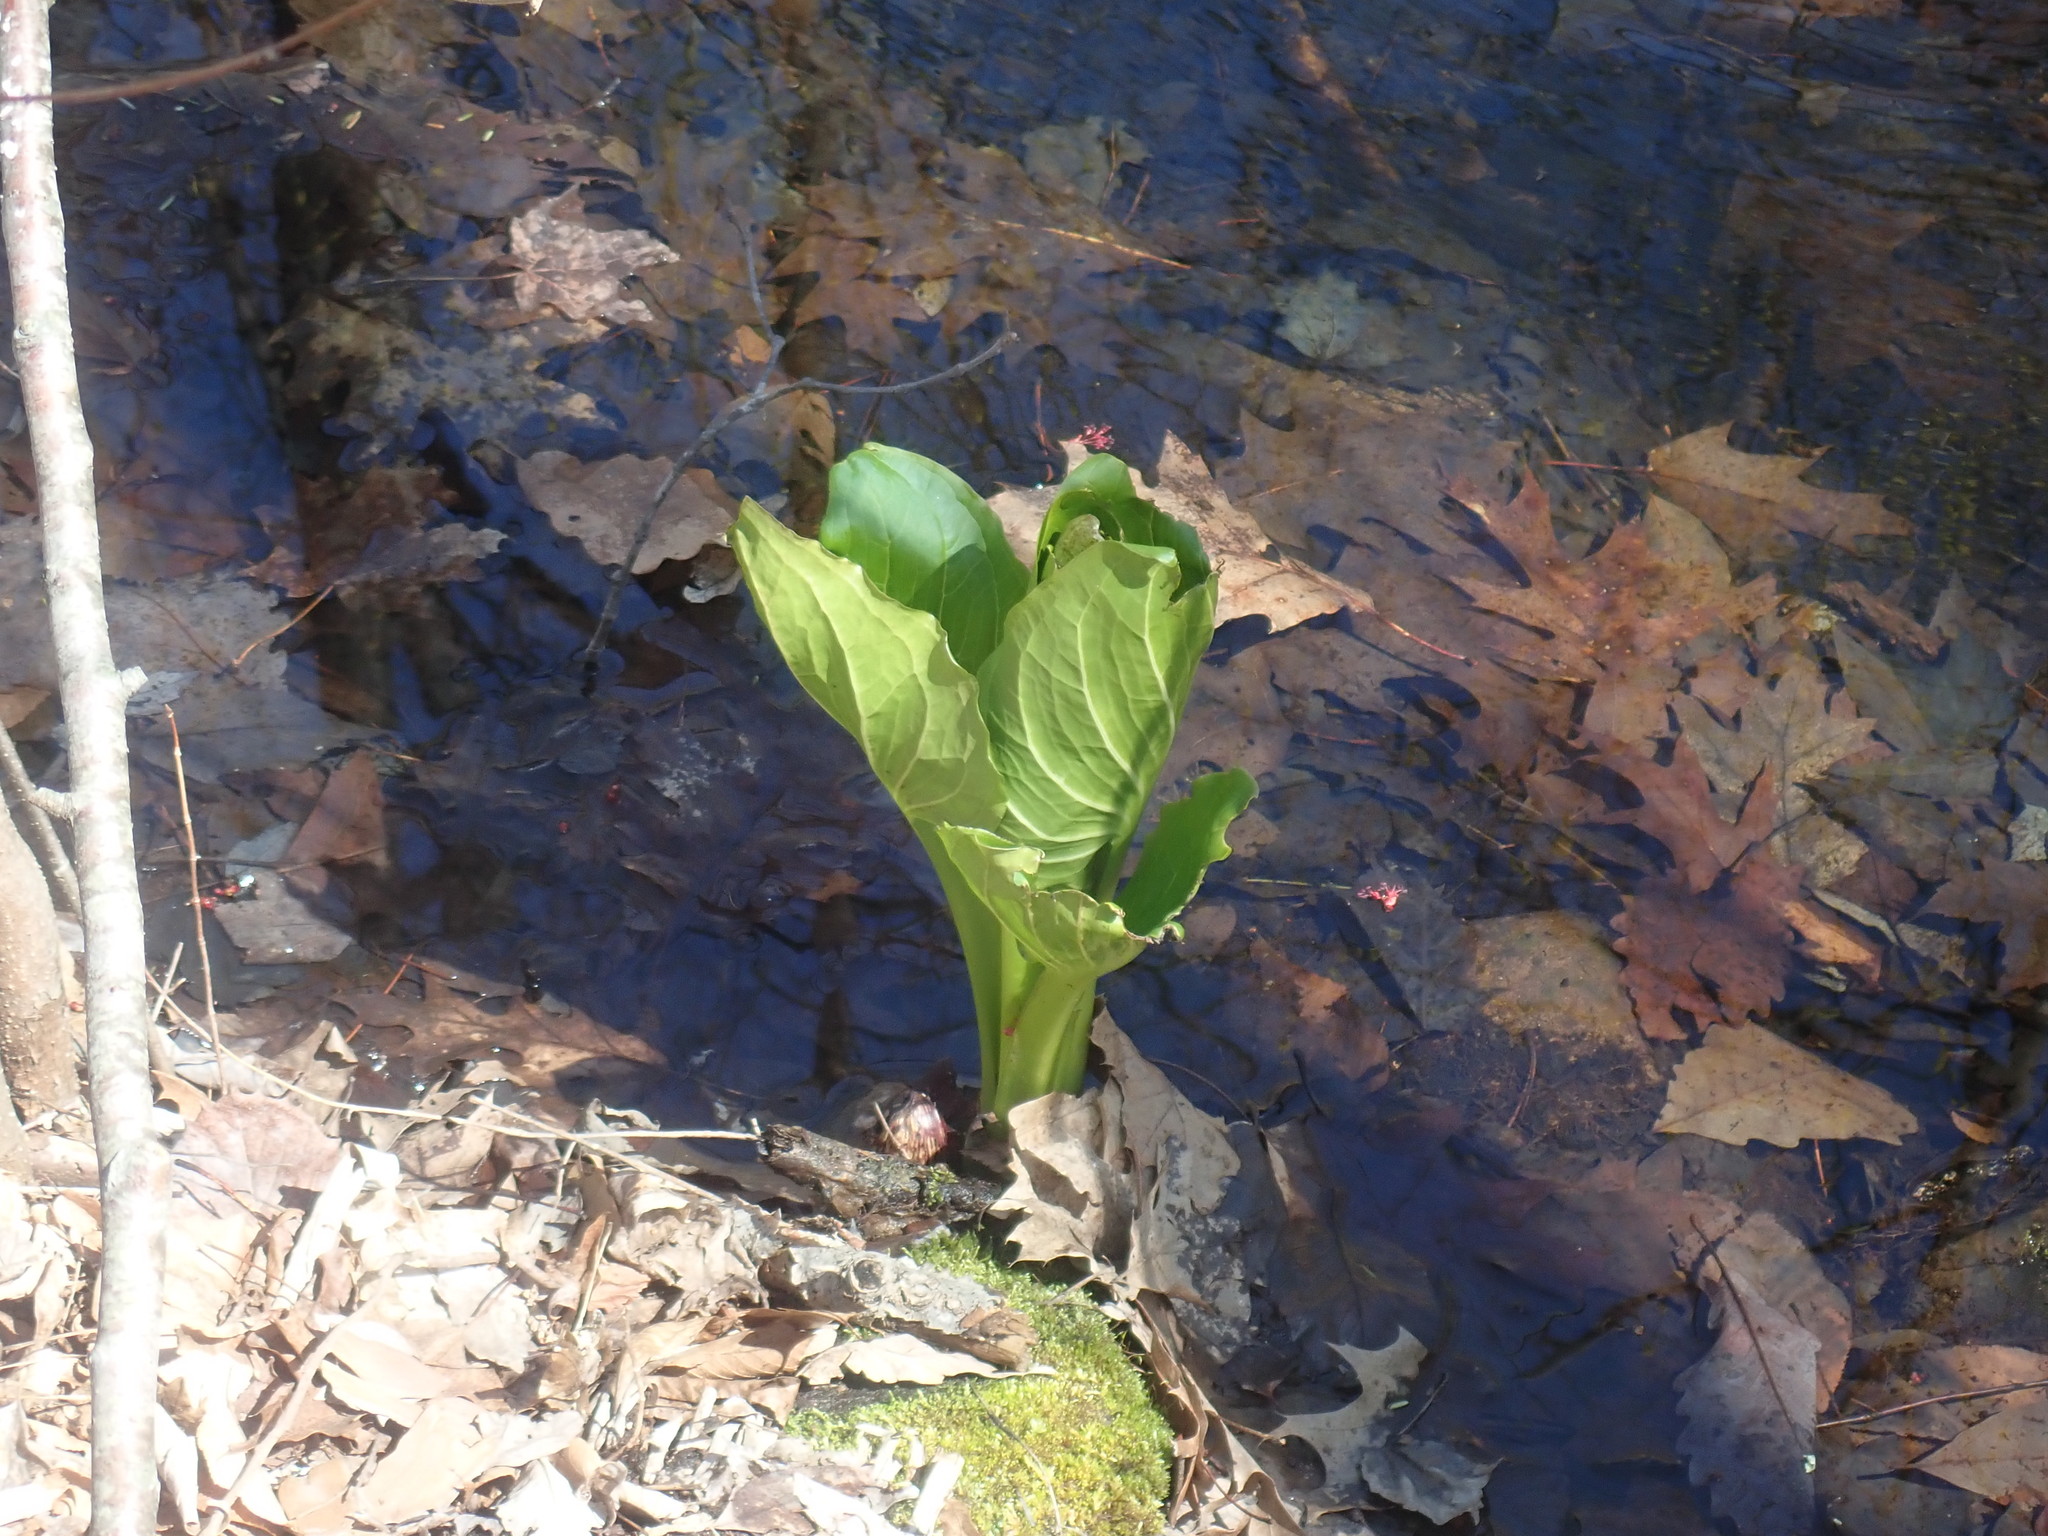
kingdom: Plantae
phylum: Tracheophyta
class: Liliopsida
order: Alismatales
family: Araceae
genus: Symplocarpus
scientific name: Symplocarpus foetidus
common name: Eastern skunk cabbage
